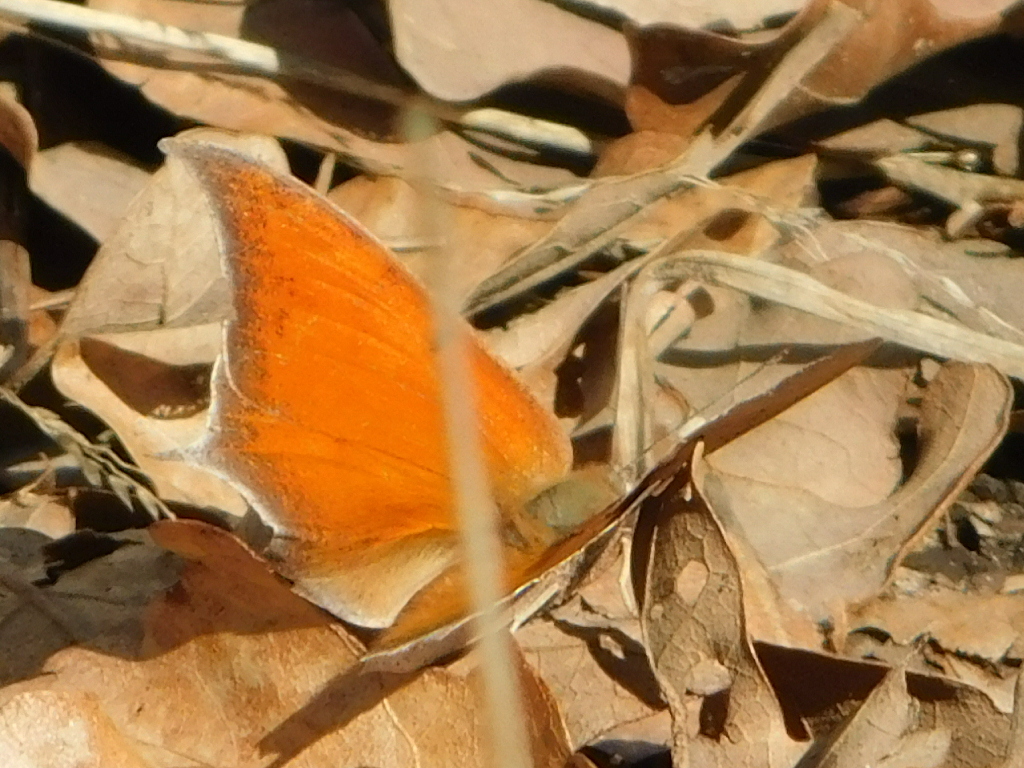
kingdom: Animalia
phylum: Arthropoda
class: Insecta
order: Lepidoptera
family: Nymphalidae
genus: Anaea
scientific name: Anaea andria
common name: Goatweed leafwing
